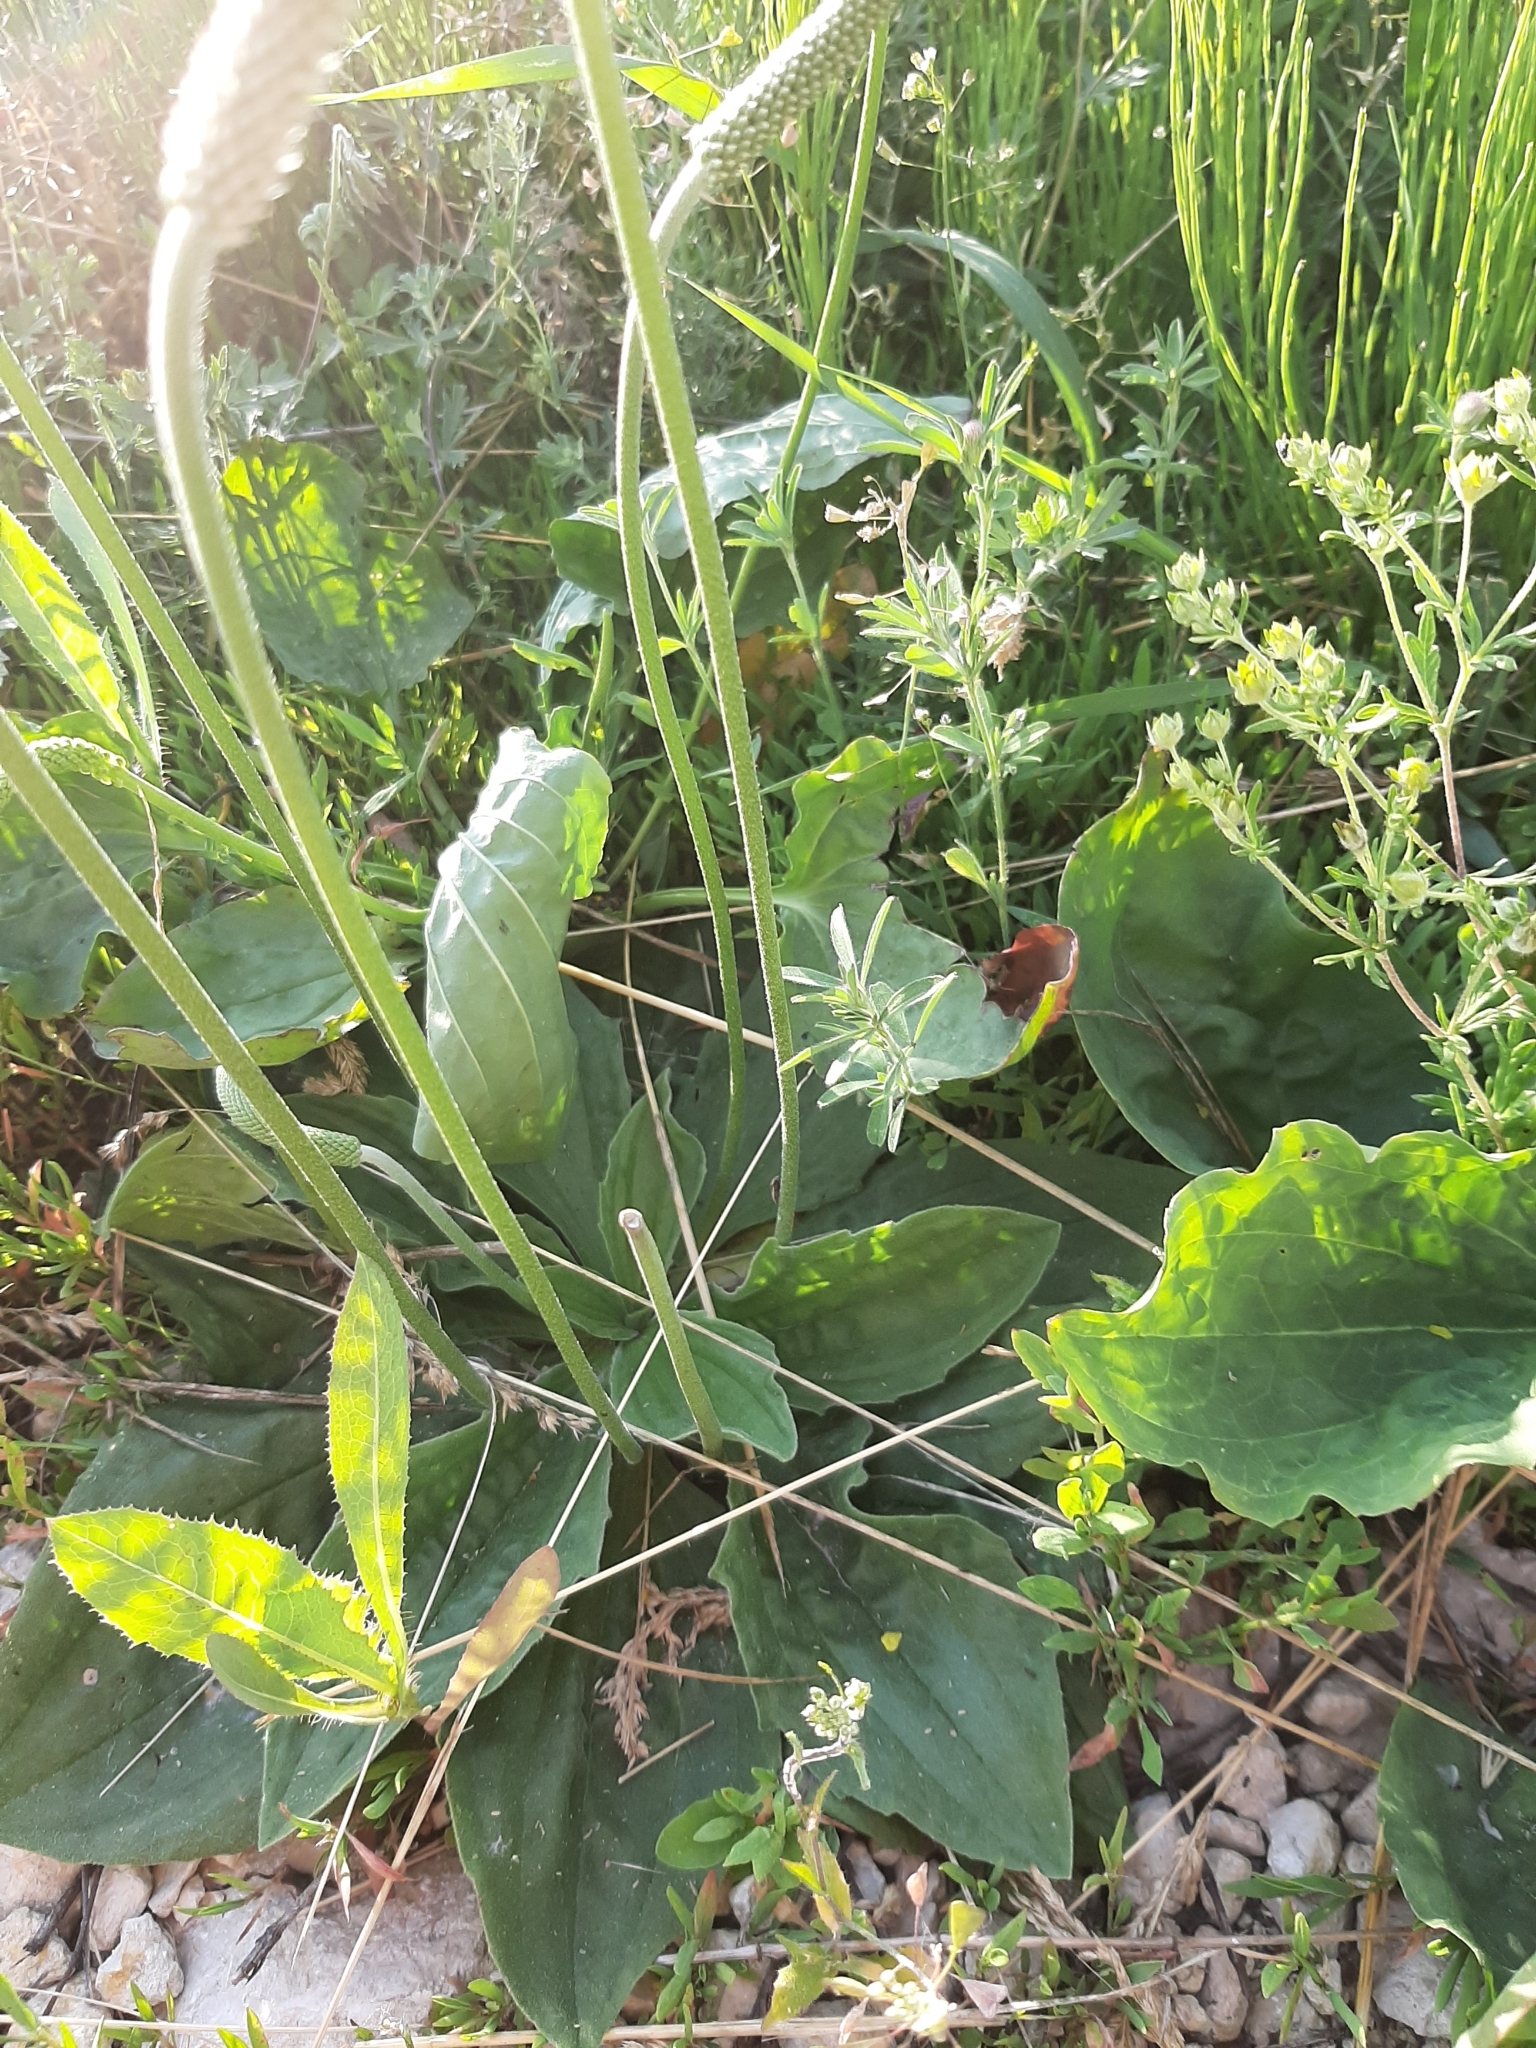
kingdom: Plantae
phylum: Tracheophyta
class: Magnoliopsida
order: Lamiales
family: Plantaginaceae
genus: Plantago
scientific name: Plantago media
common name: Hoary plantain
